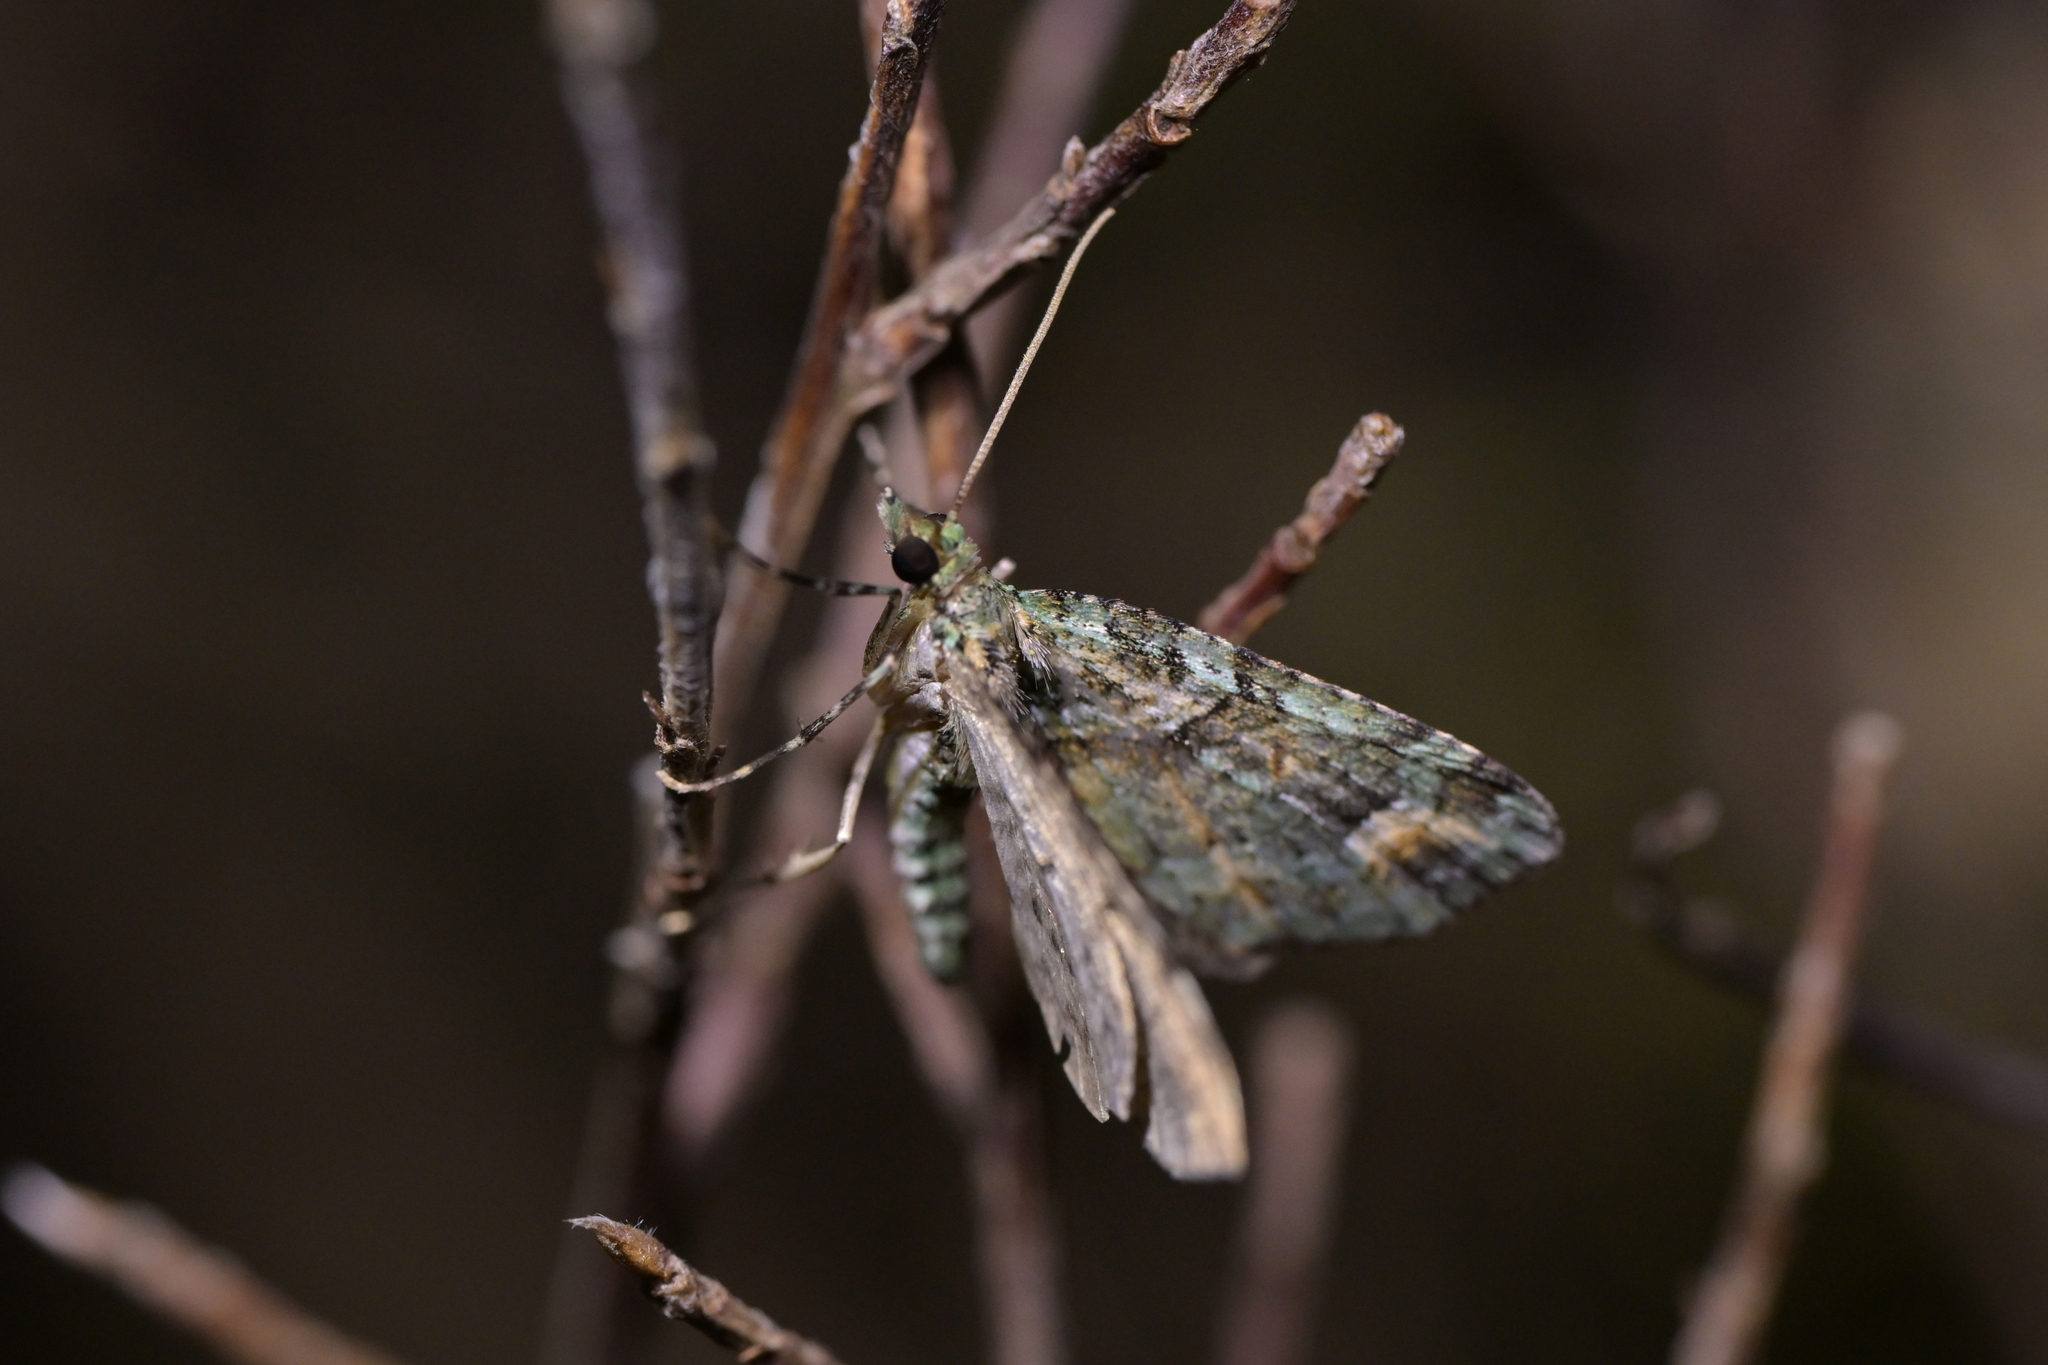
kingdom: Animalia
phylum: Arthropoda
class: Insecta
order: Lepidoptera
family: Geometridae
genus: Idaea
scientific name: Idaea mutanda
